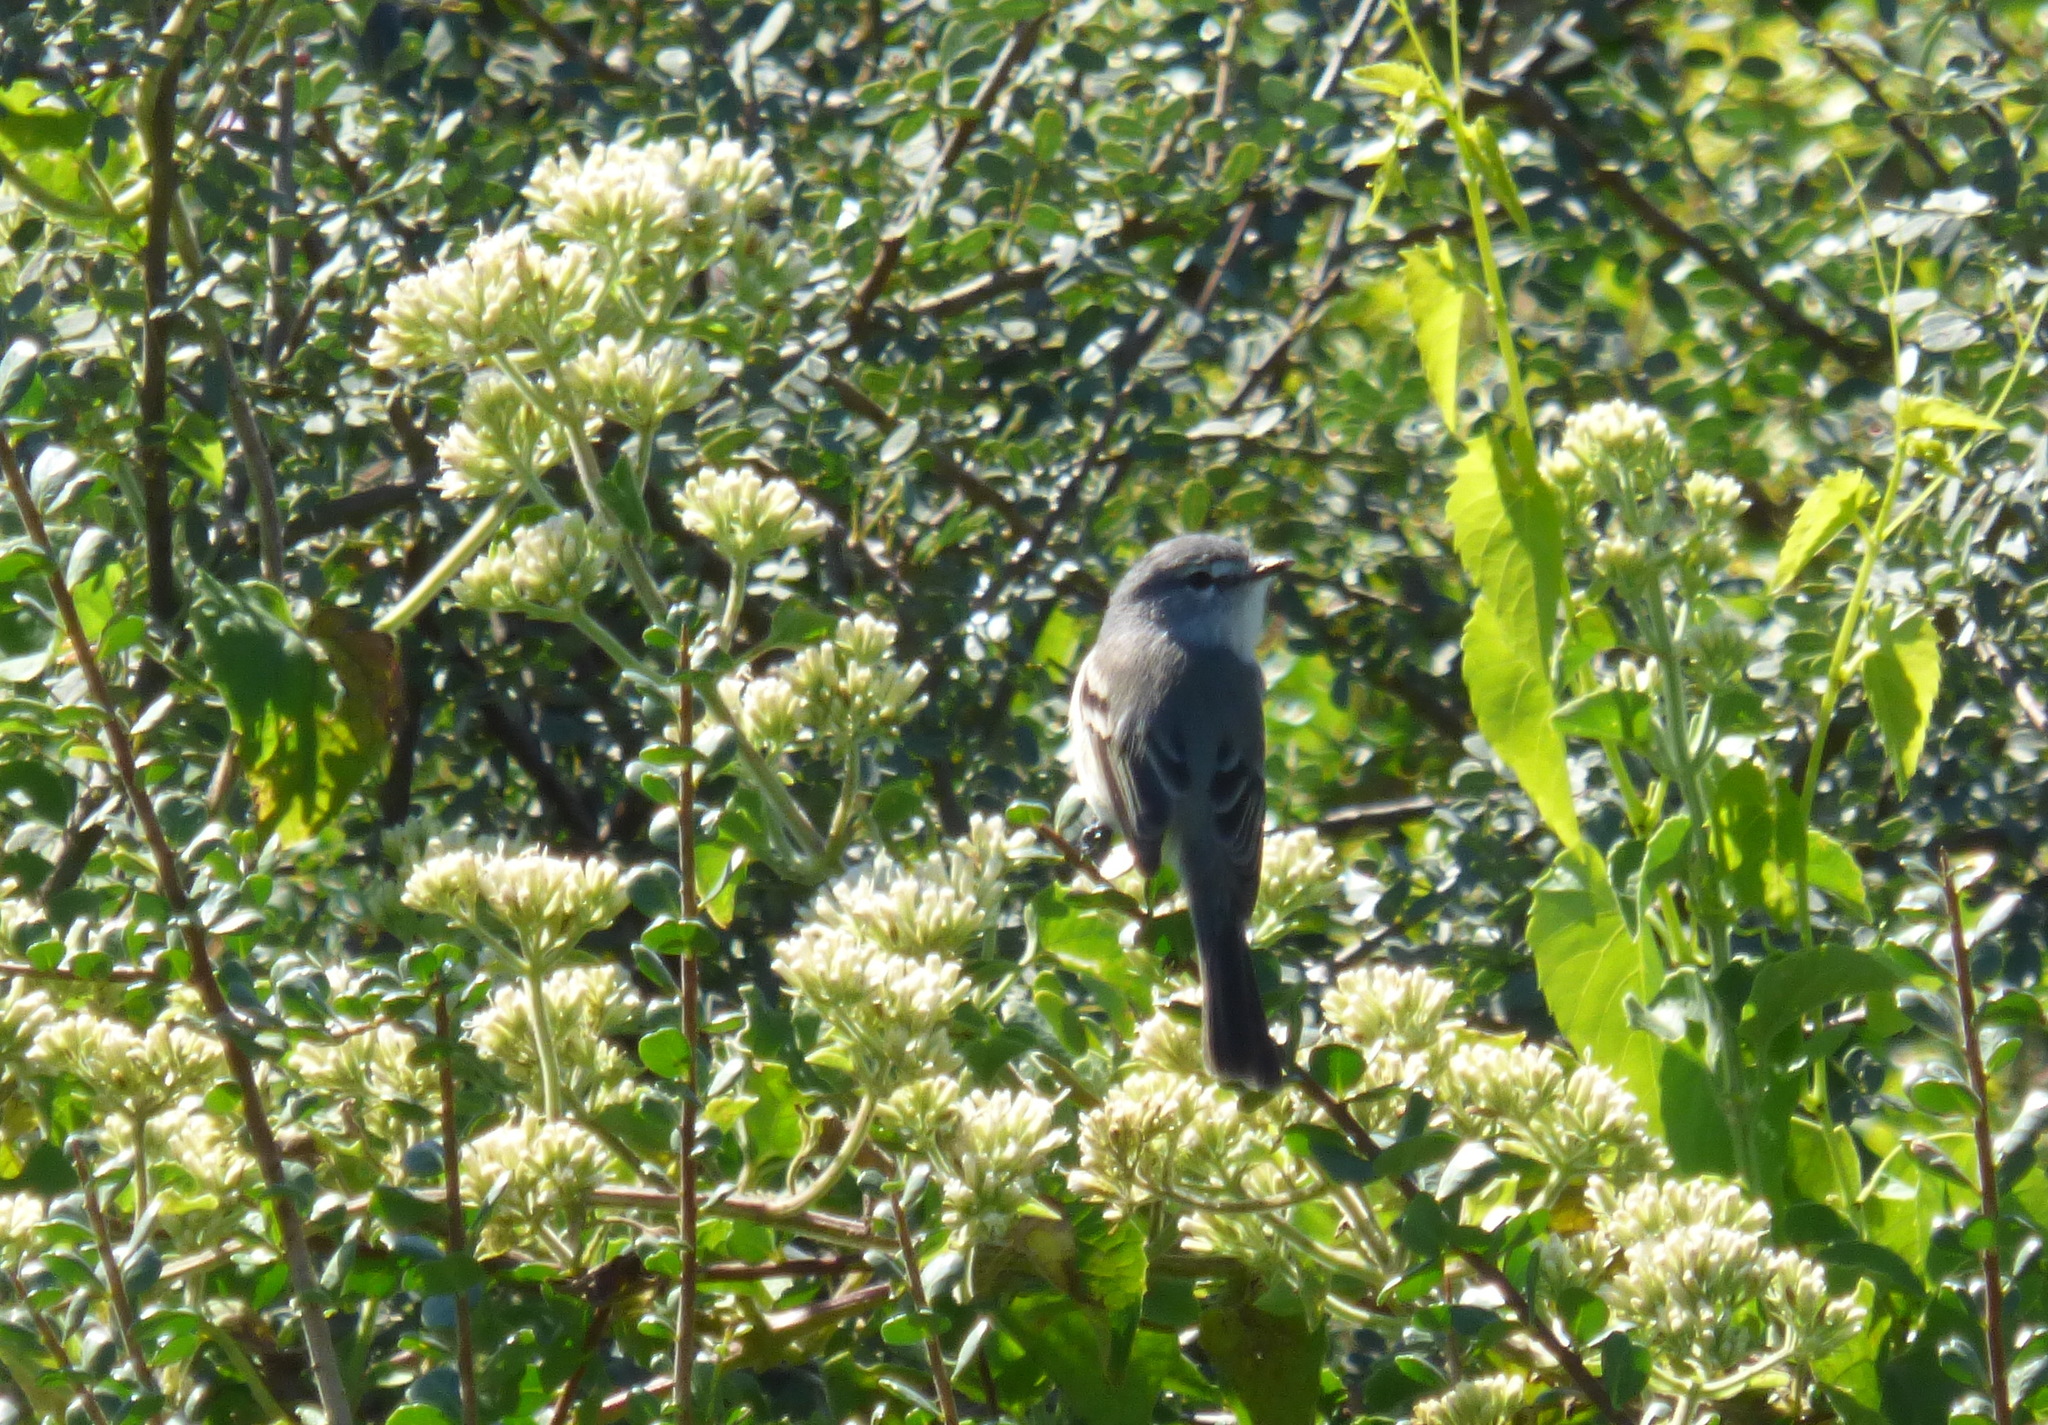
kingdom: Animalia
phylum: Chordata
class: Aves
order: Passeriformes
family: Tyrannidae
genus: Serpophaga
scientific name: Serpophaga subcristata
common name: White-crested tyrannulet
